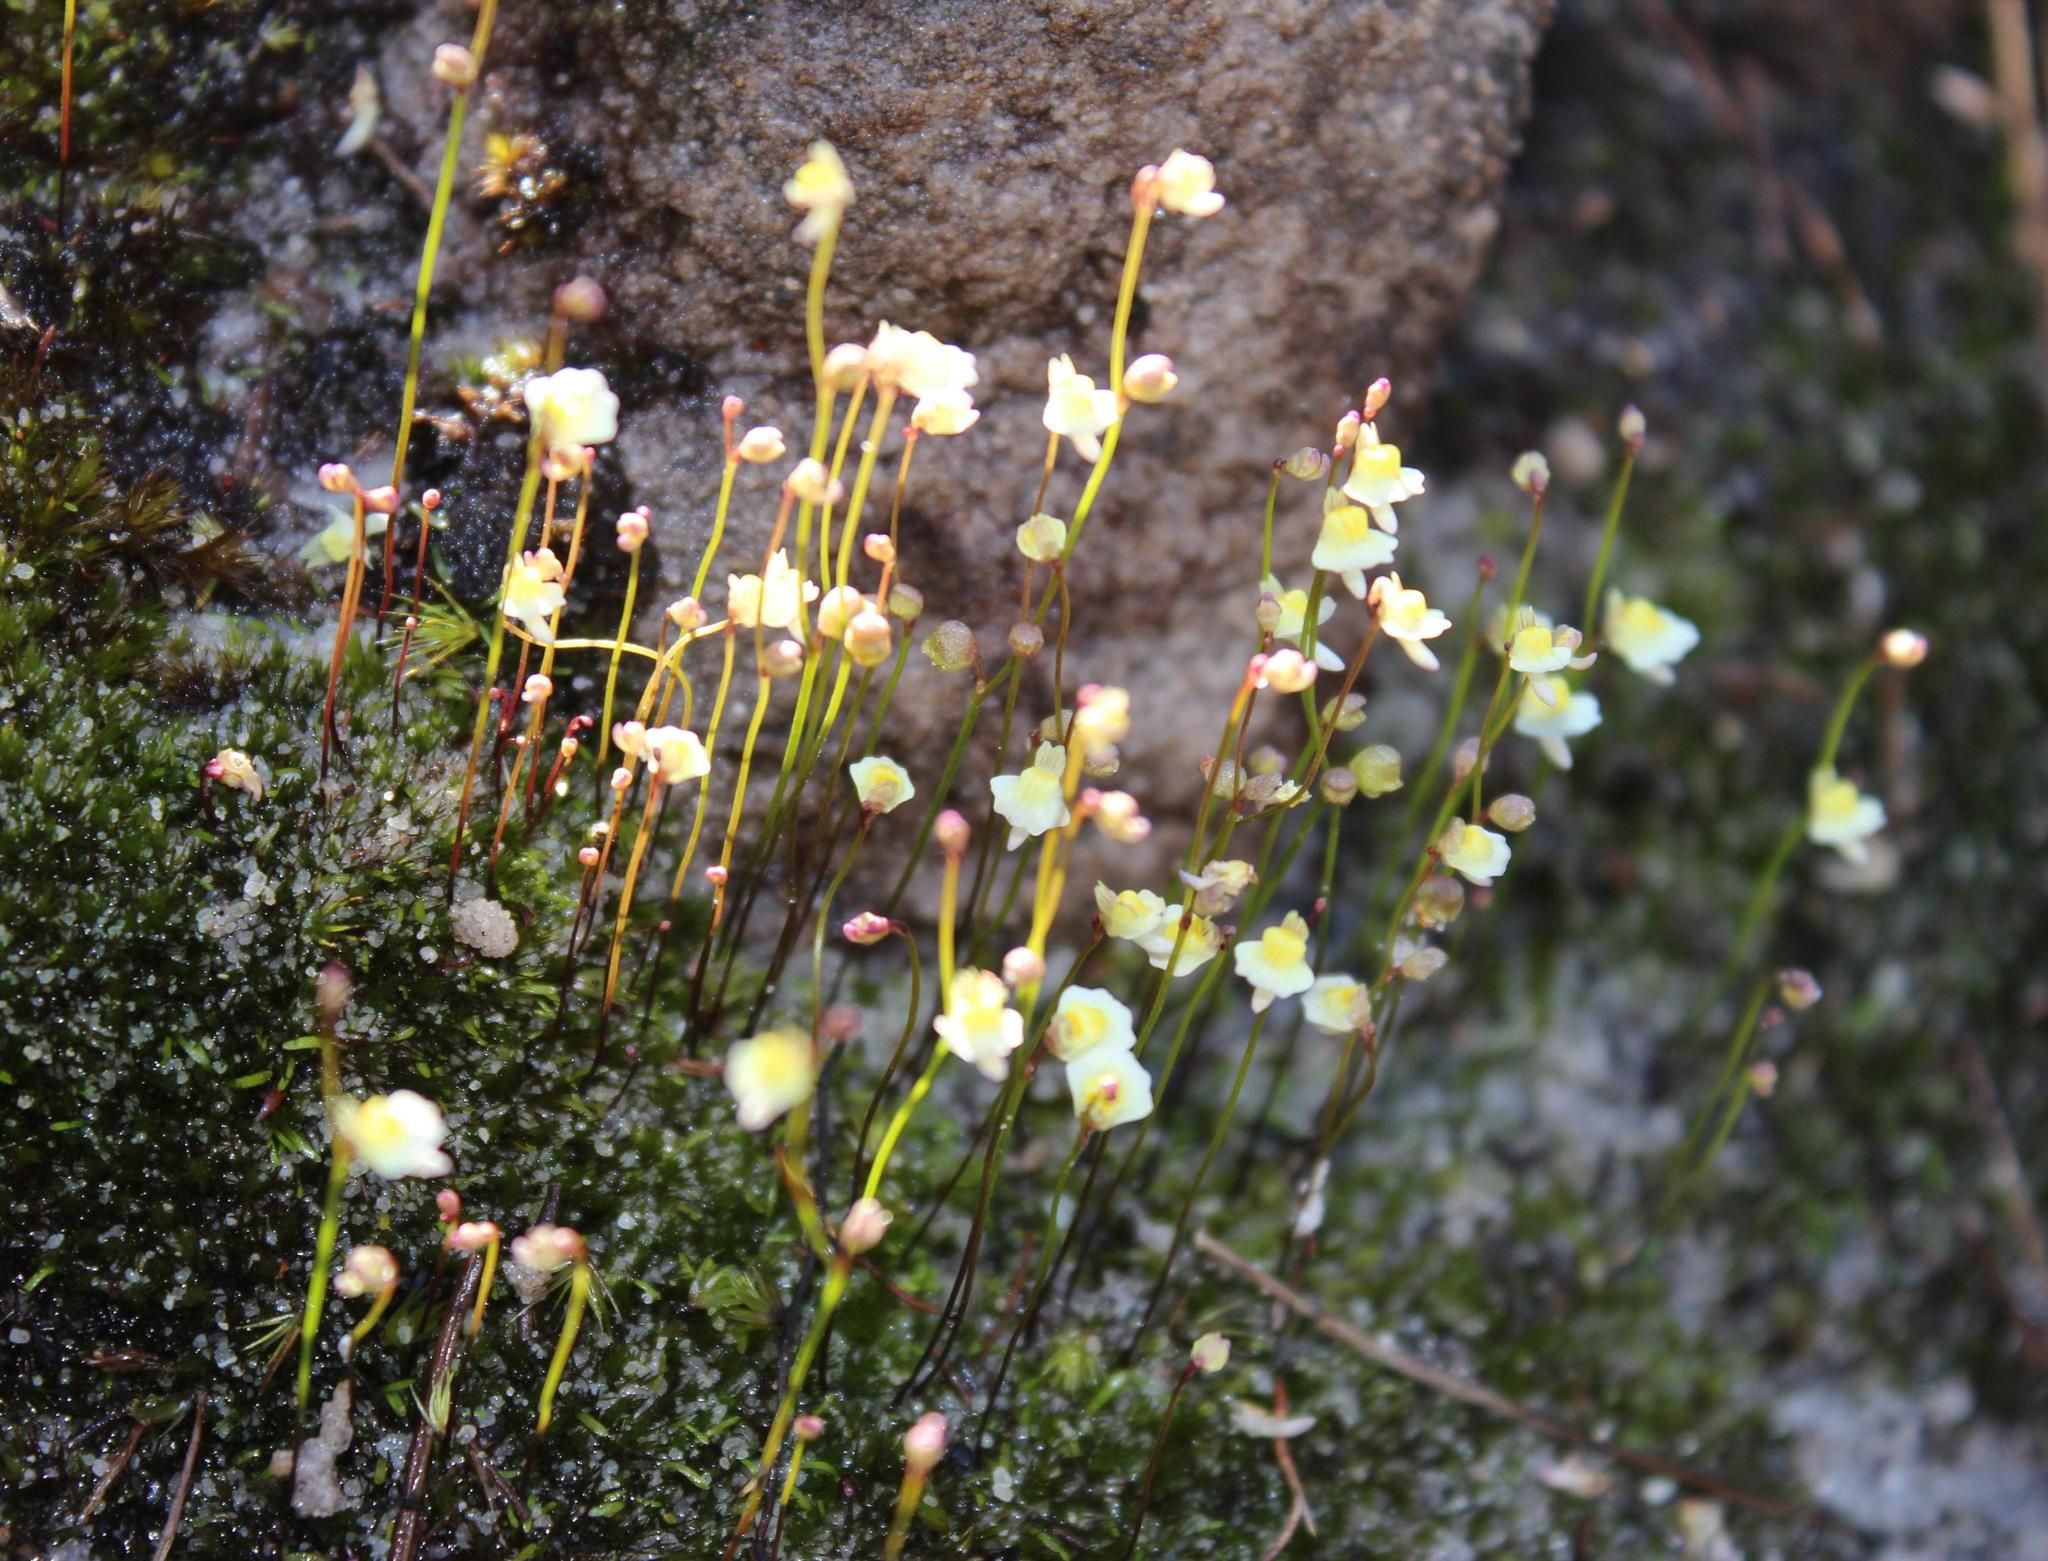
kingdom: Plantae
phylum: Tracheophyta
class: Magnoliopsida
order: Lamiales
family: Lentibulariaceae
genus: Utricularia
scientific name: Utricularia bisquamata
